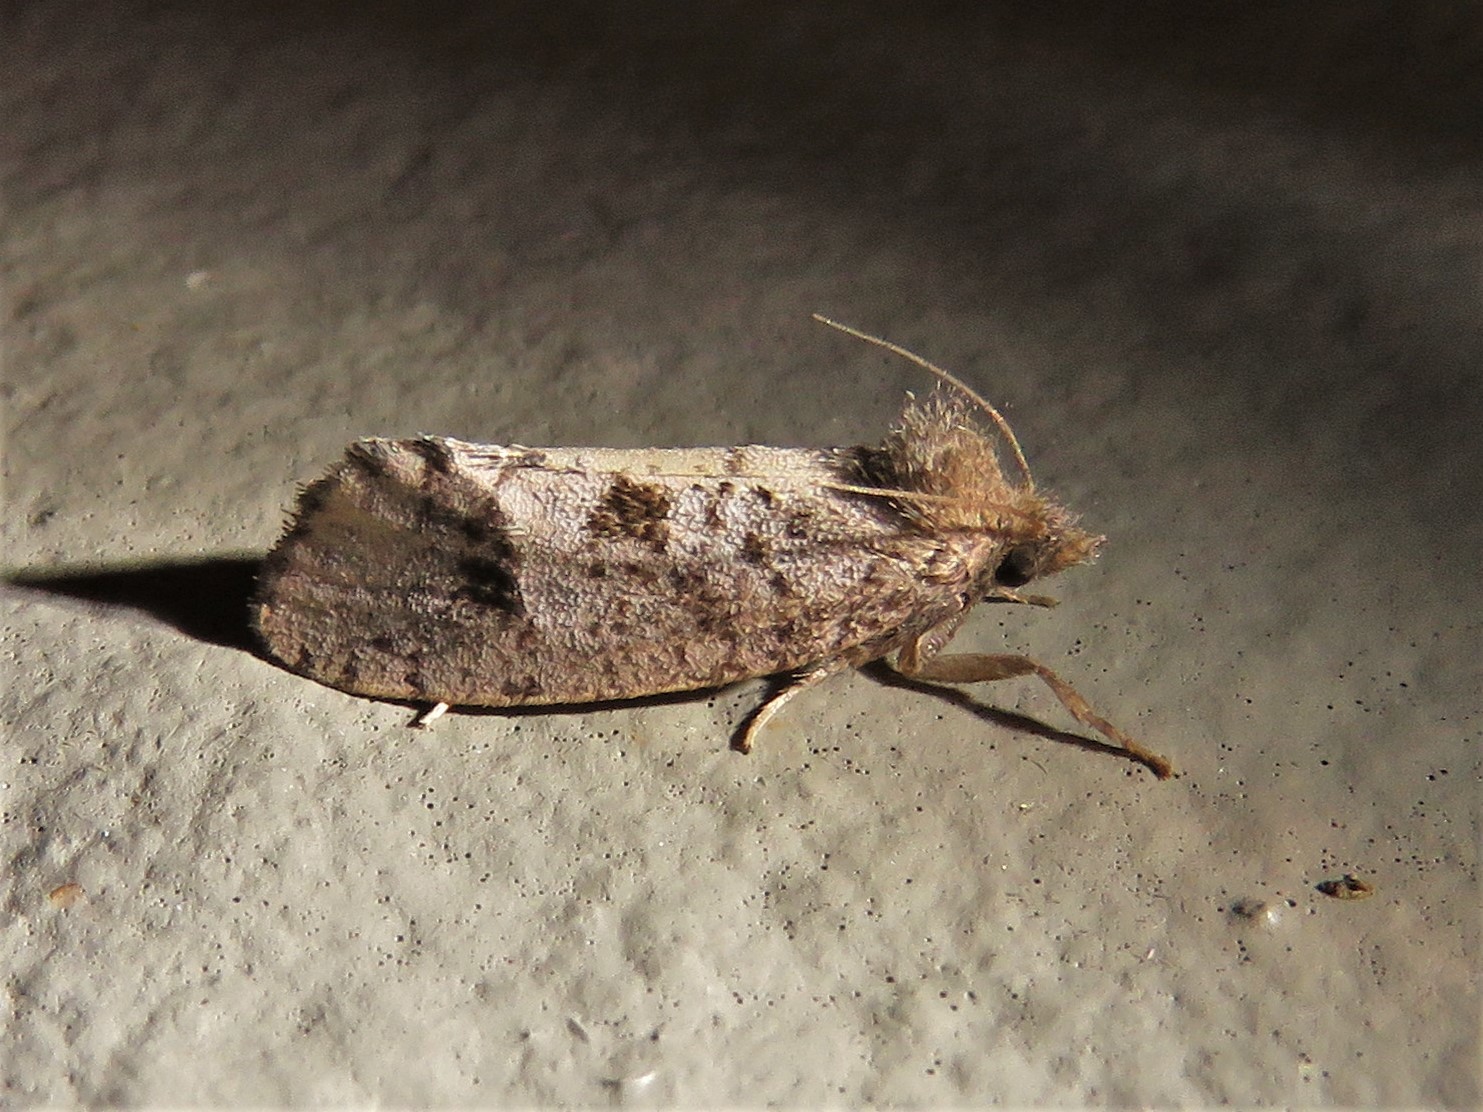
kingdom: Animalia
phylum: Arthropoda
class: Insecta
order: Lepidoptera
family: Tineidae
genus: Acrolophus
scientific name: Acrolophus texanella
